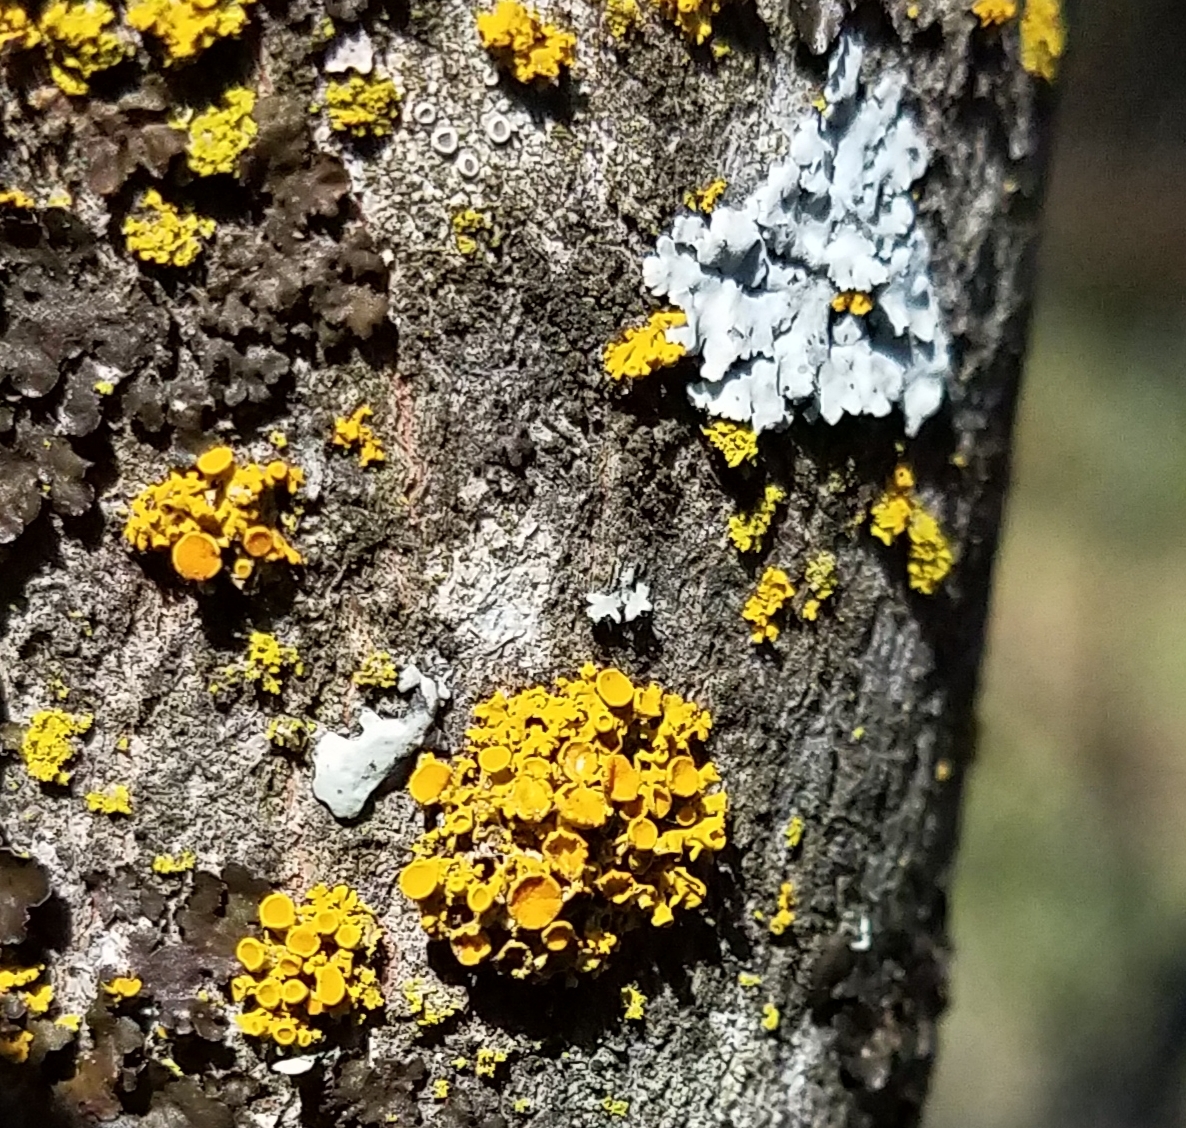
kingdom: Fungi
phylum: Ascomycota
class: Lecanoromycetes
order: Teloschistales
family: Teloschistaceae
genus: Gallowayella
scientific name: Gallowayella hasseana
